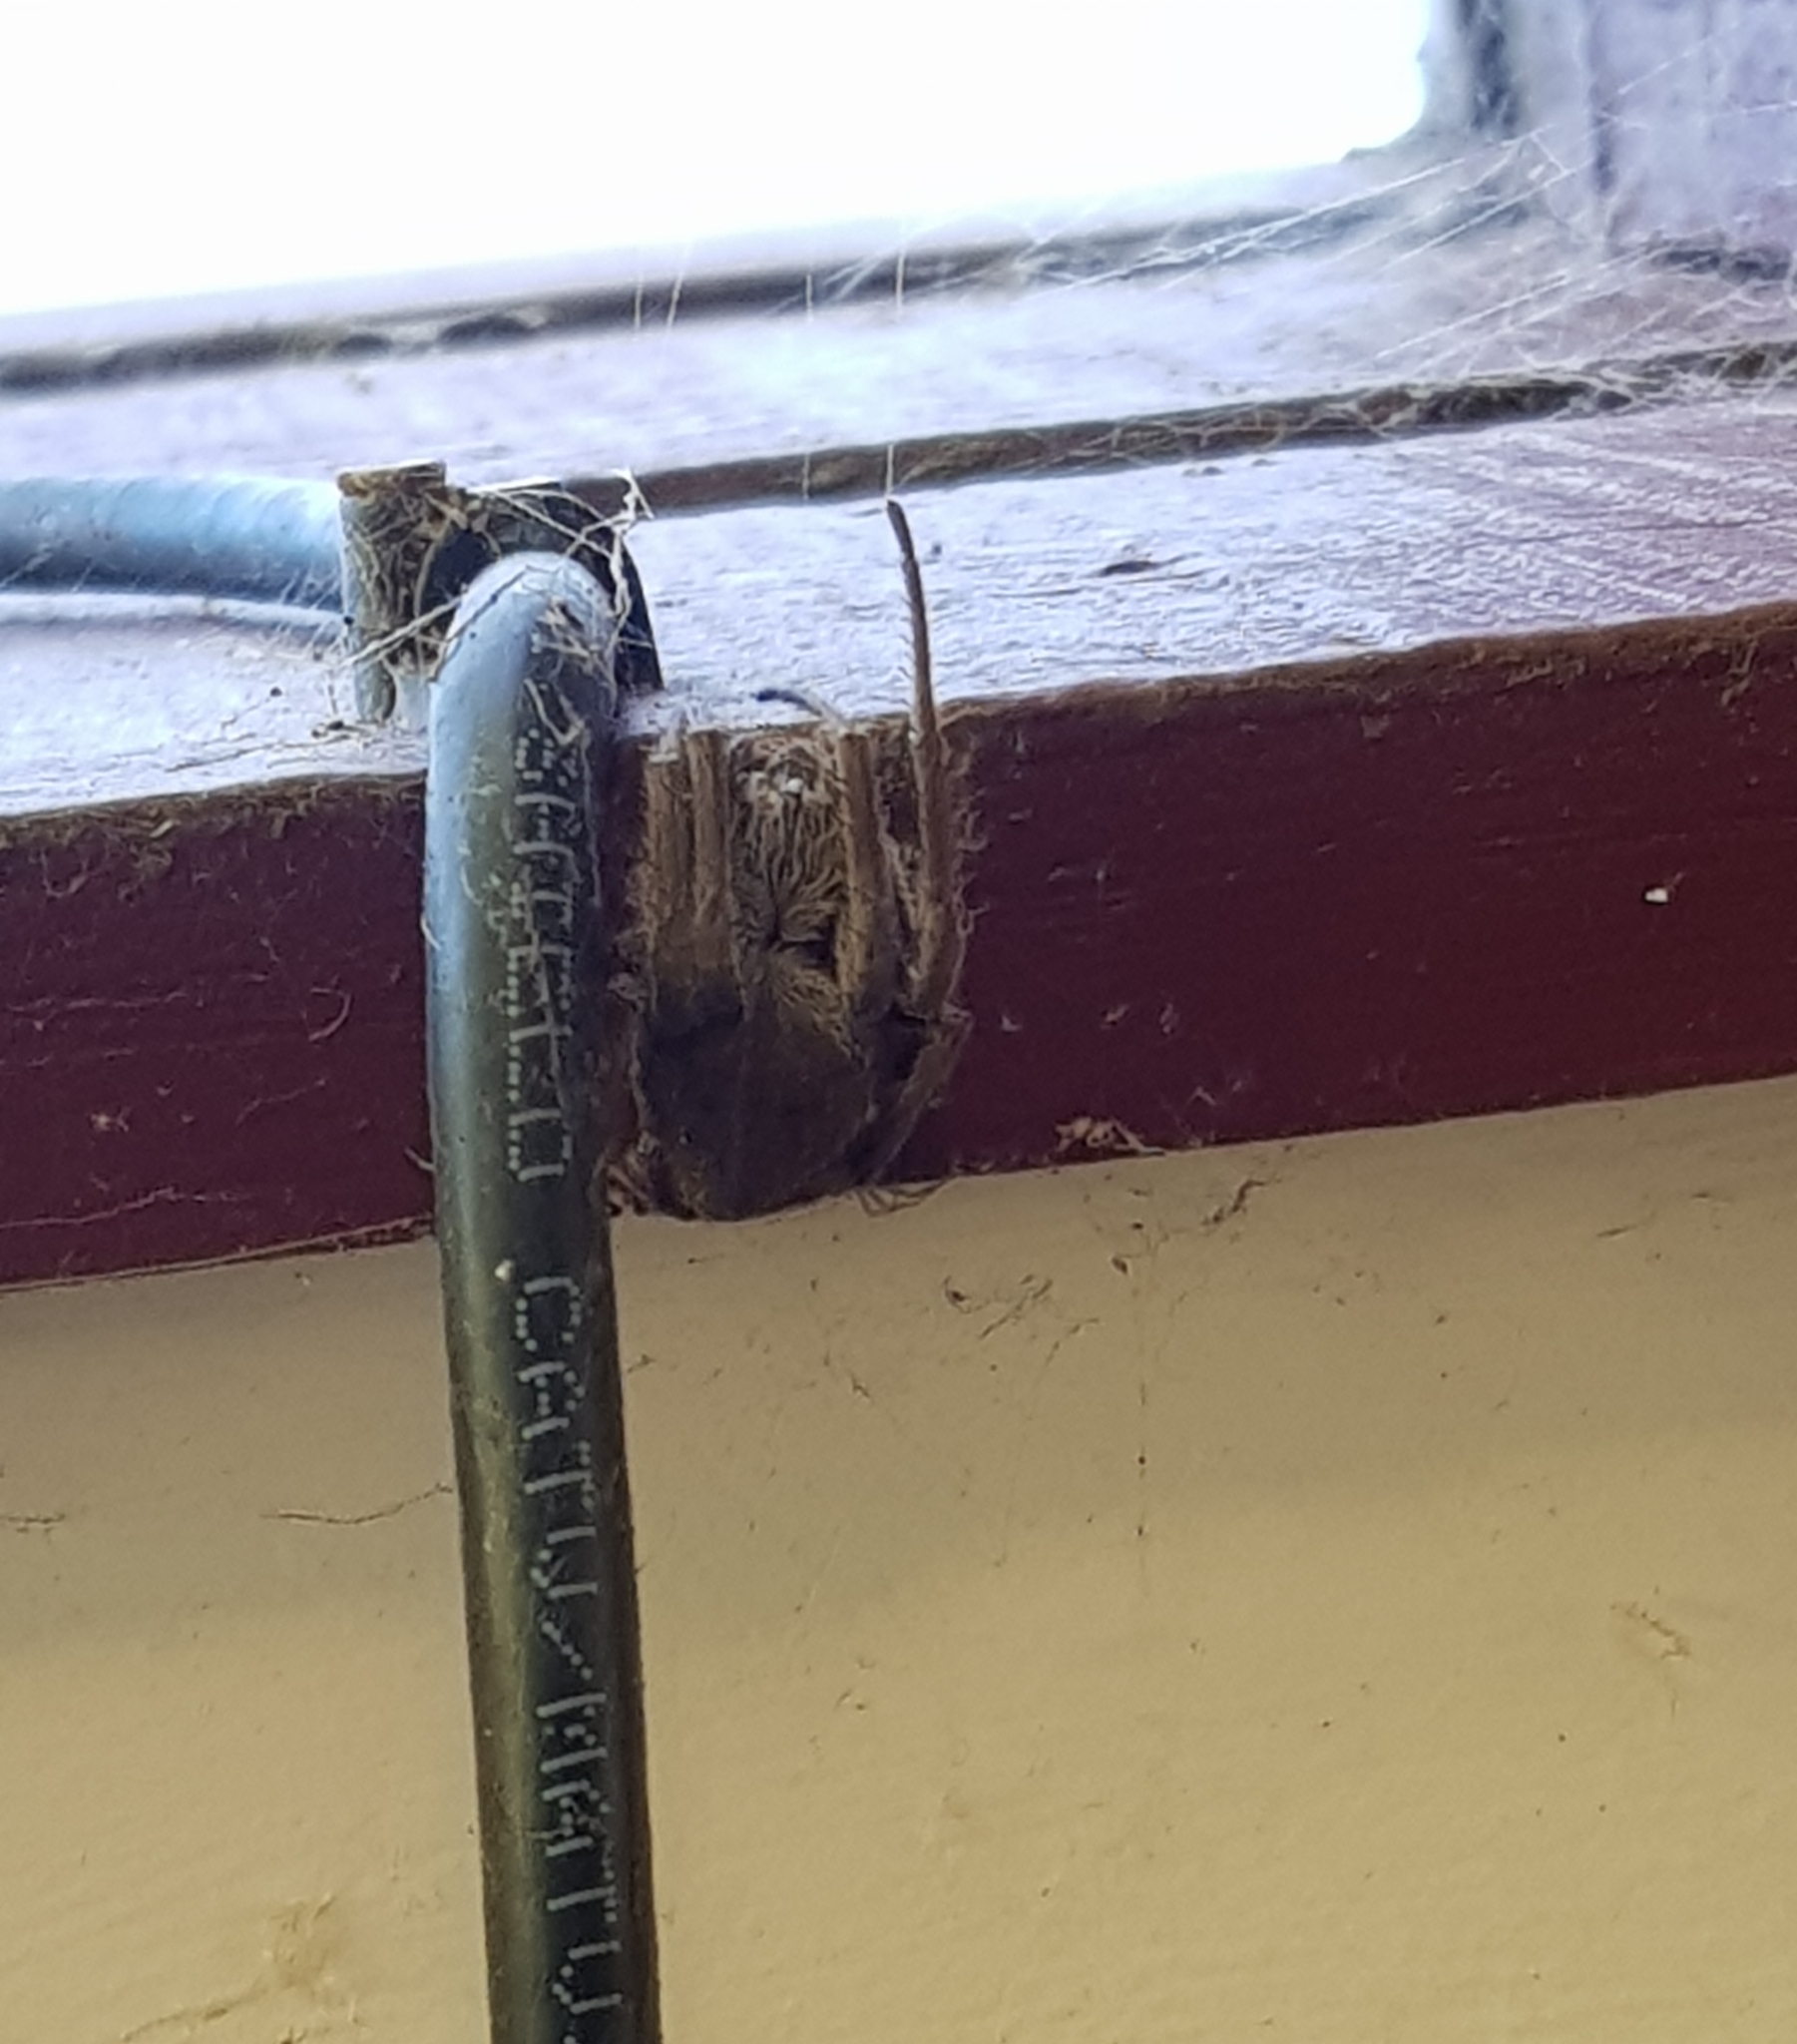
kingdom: Animalia
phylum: Arthropoda
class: Arachnida
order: Araneae
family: Araneidae
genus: Hortophora
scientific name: Hortophora transmarina
